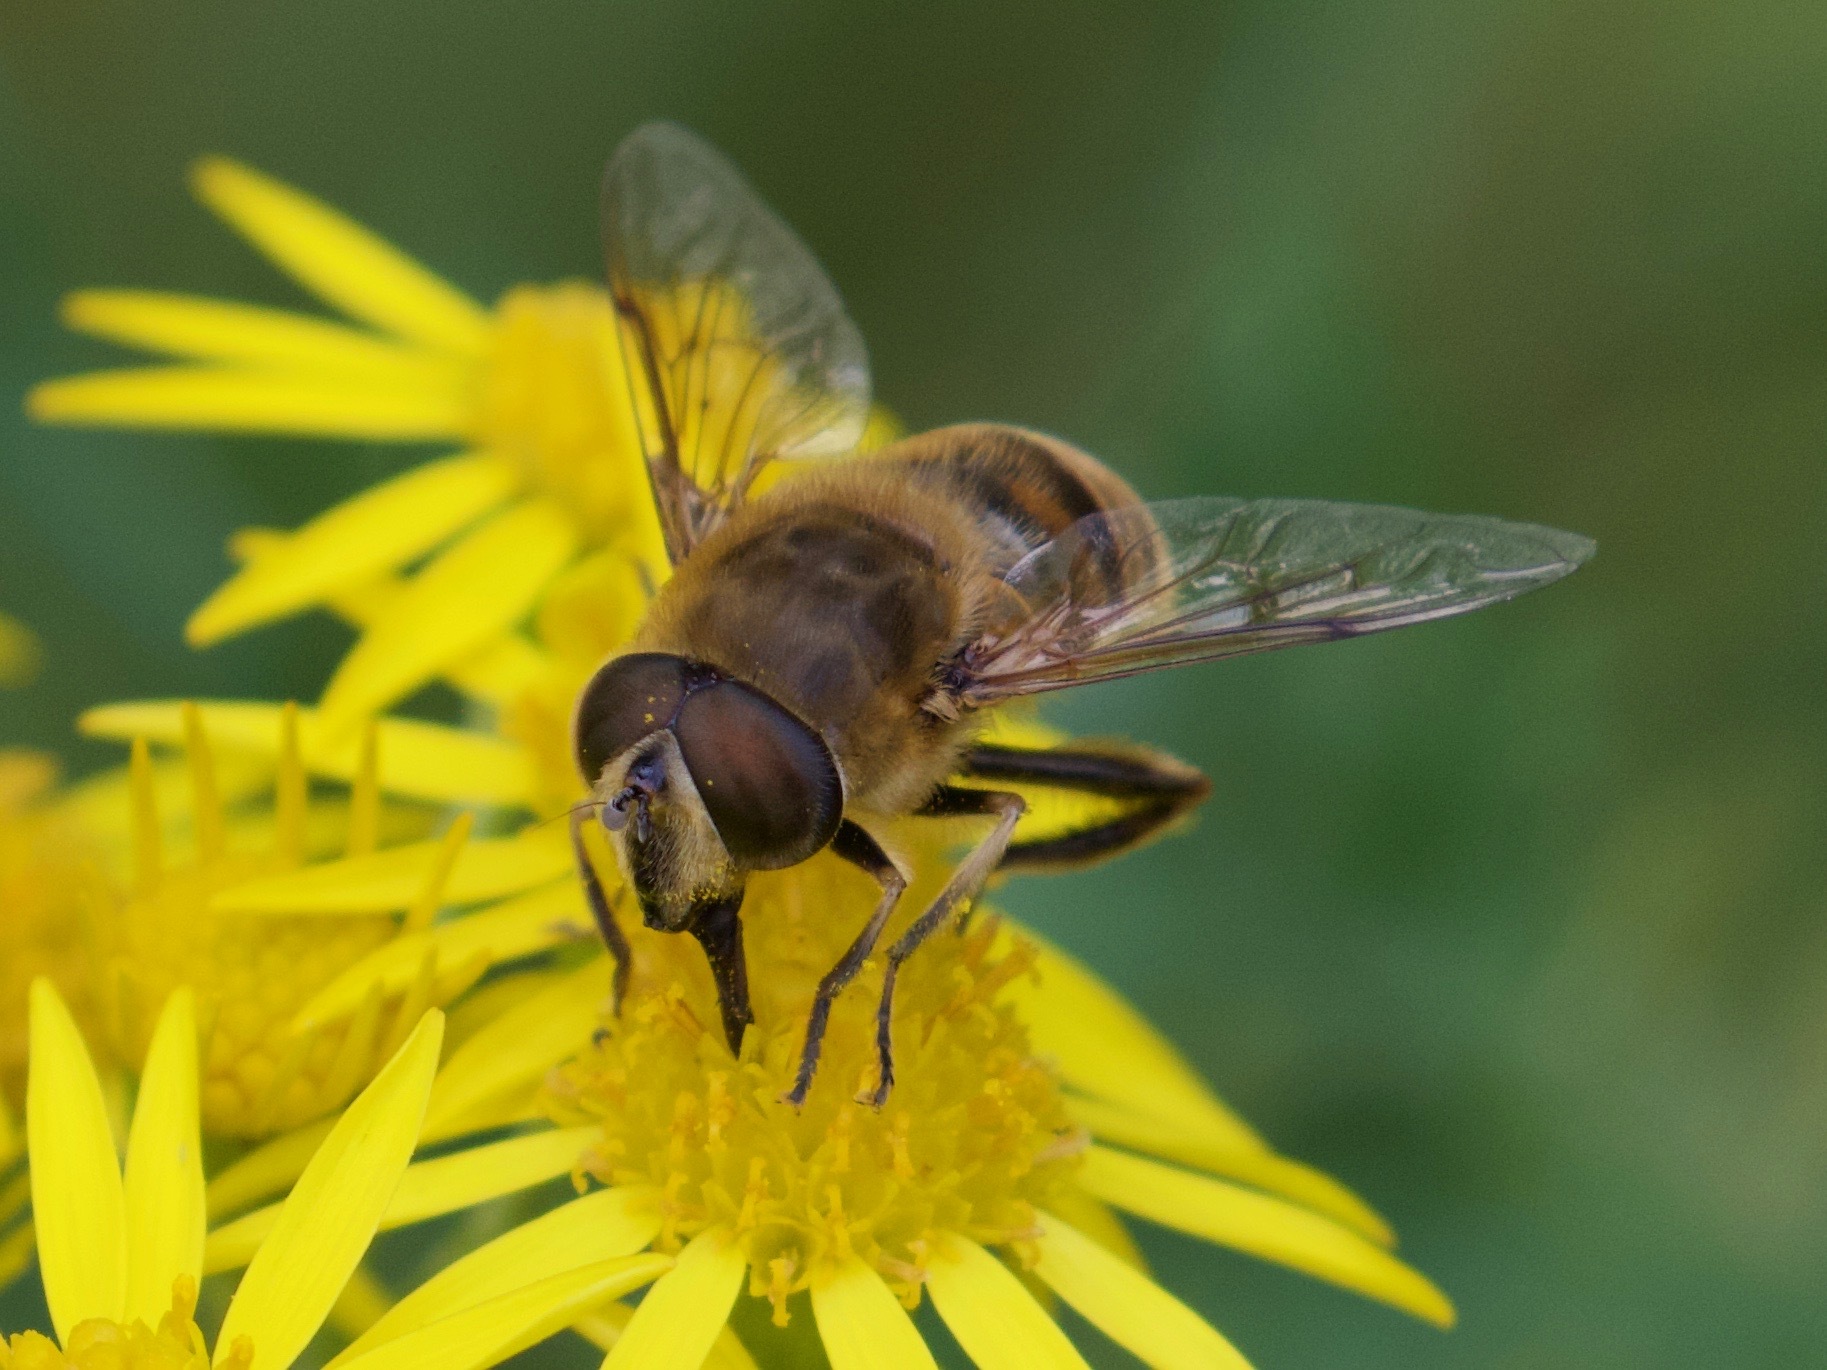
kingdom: Animalia
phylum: Arthropoda
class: Insecta
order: Diptera
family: Syrphidae
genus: Eristalis
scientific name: Eristalis tenax
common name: Drone fly
